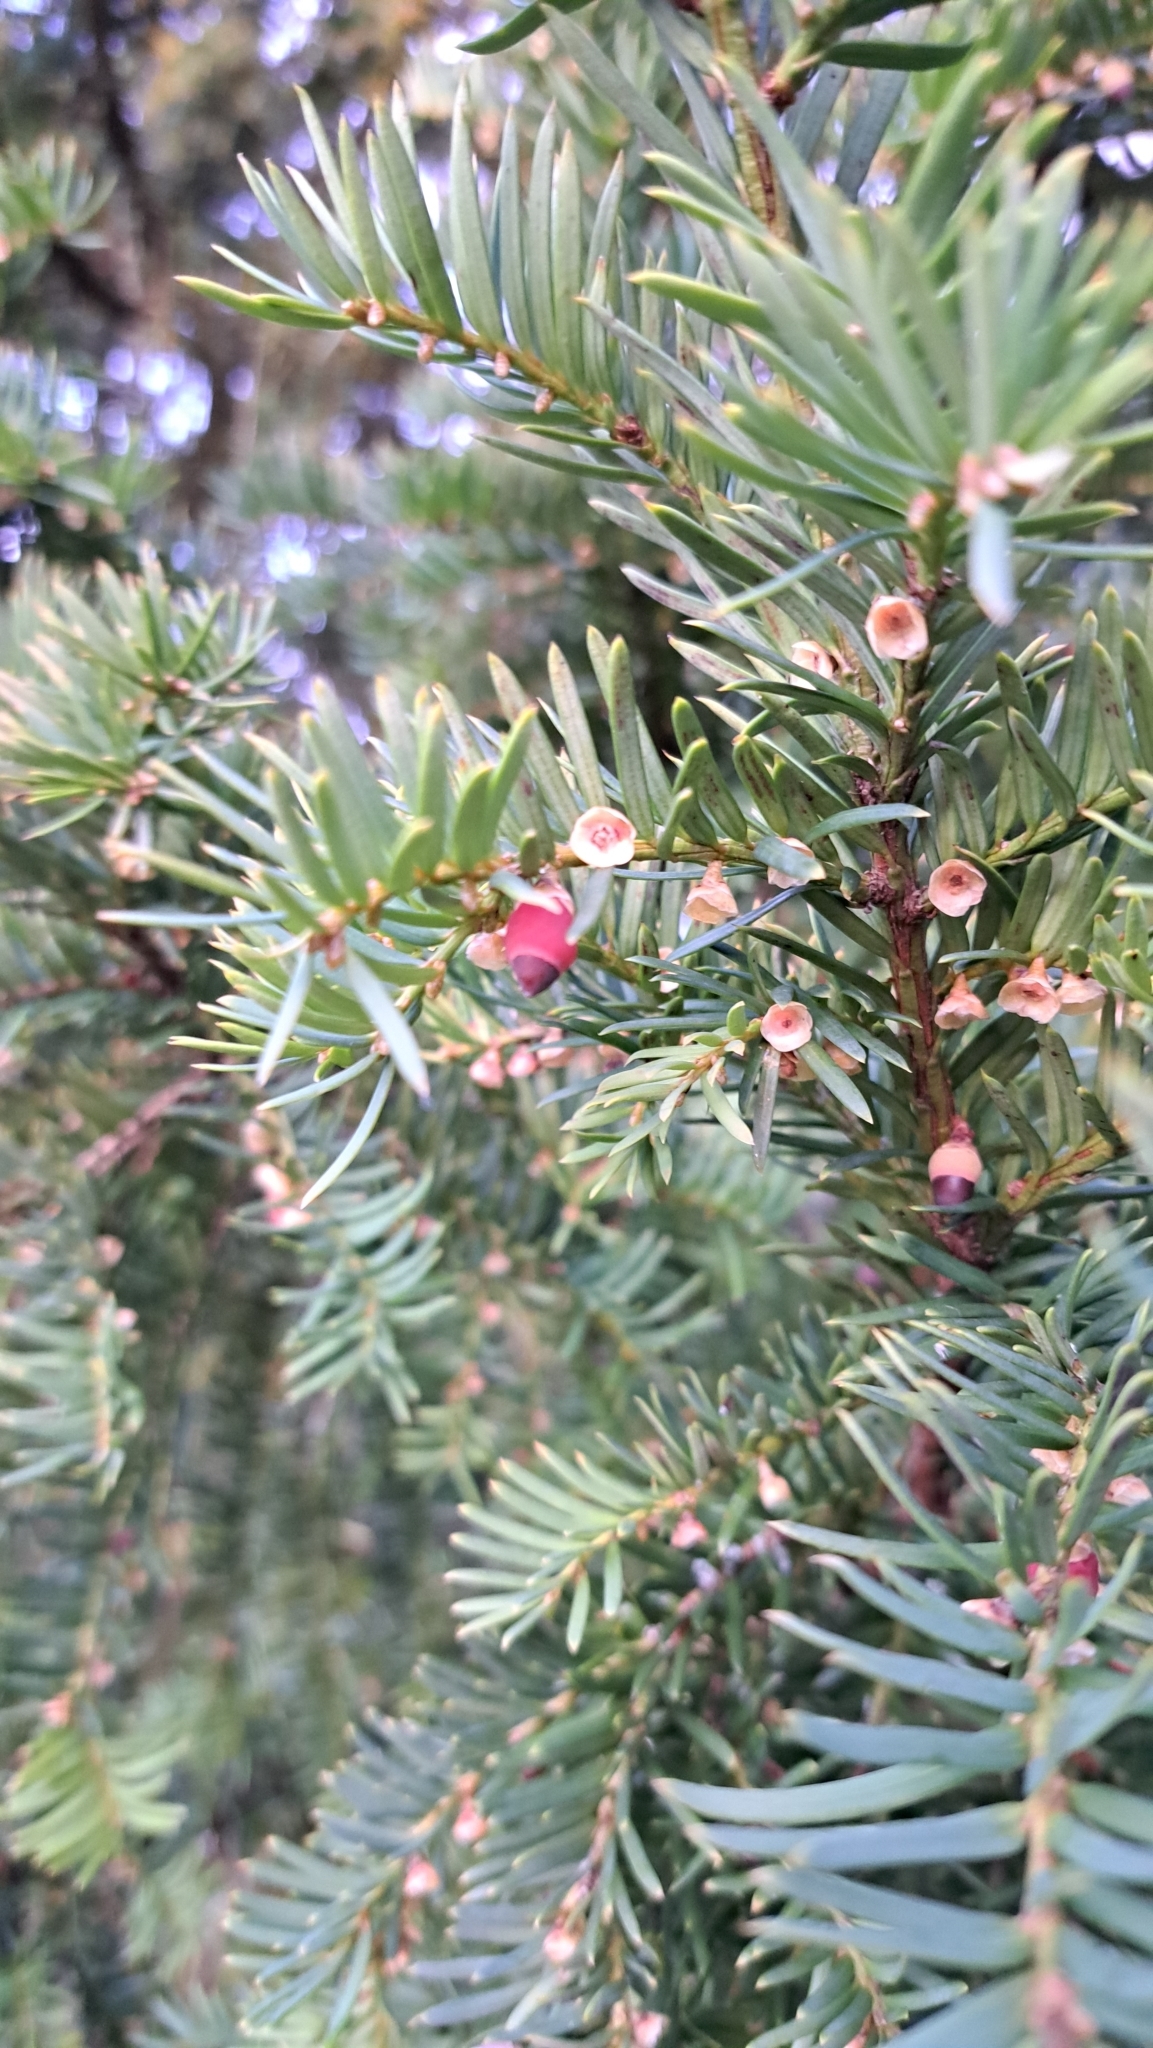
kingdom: Plantae
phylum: Tracheophyta
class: Pinopsida
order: Pinales
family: Taxaceae
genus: Taxus
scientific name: Taxus baccata
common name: Yew
